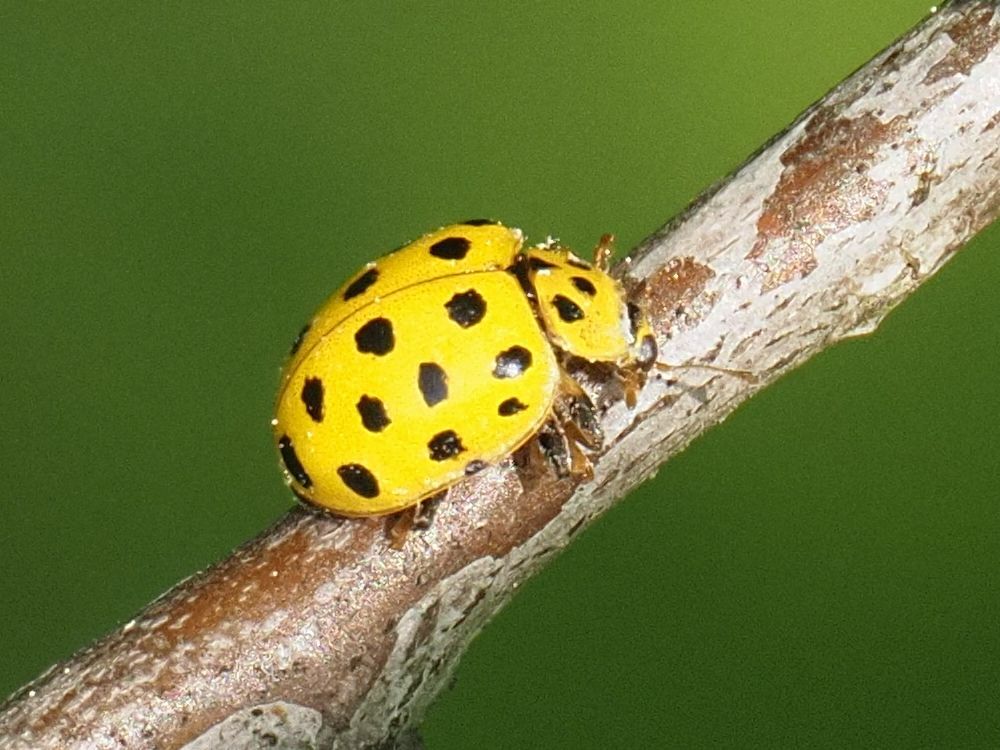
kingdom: Animalia
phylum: Arthropoda
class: Insecta
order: Coleoptera
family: Coccinellidae
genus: Psyllobora
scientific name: Psyllobora vigintiduopunctata
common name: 22-spot ladybird
